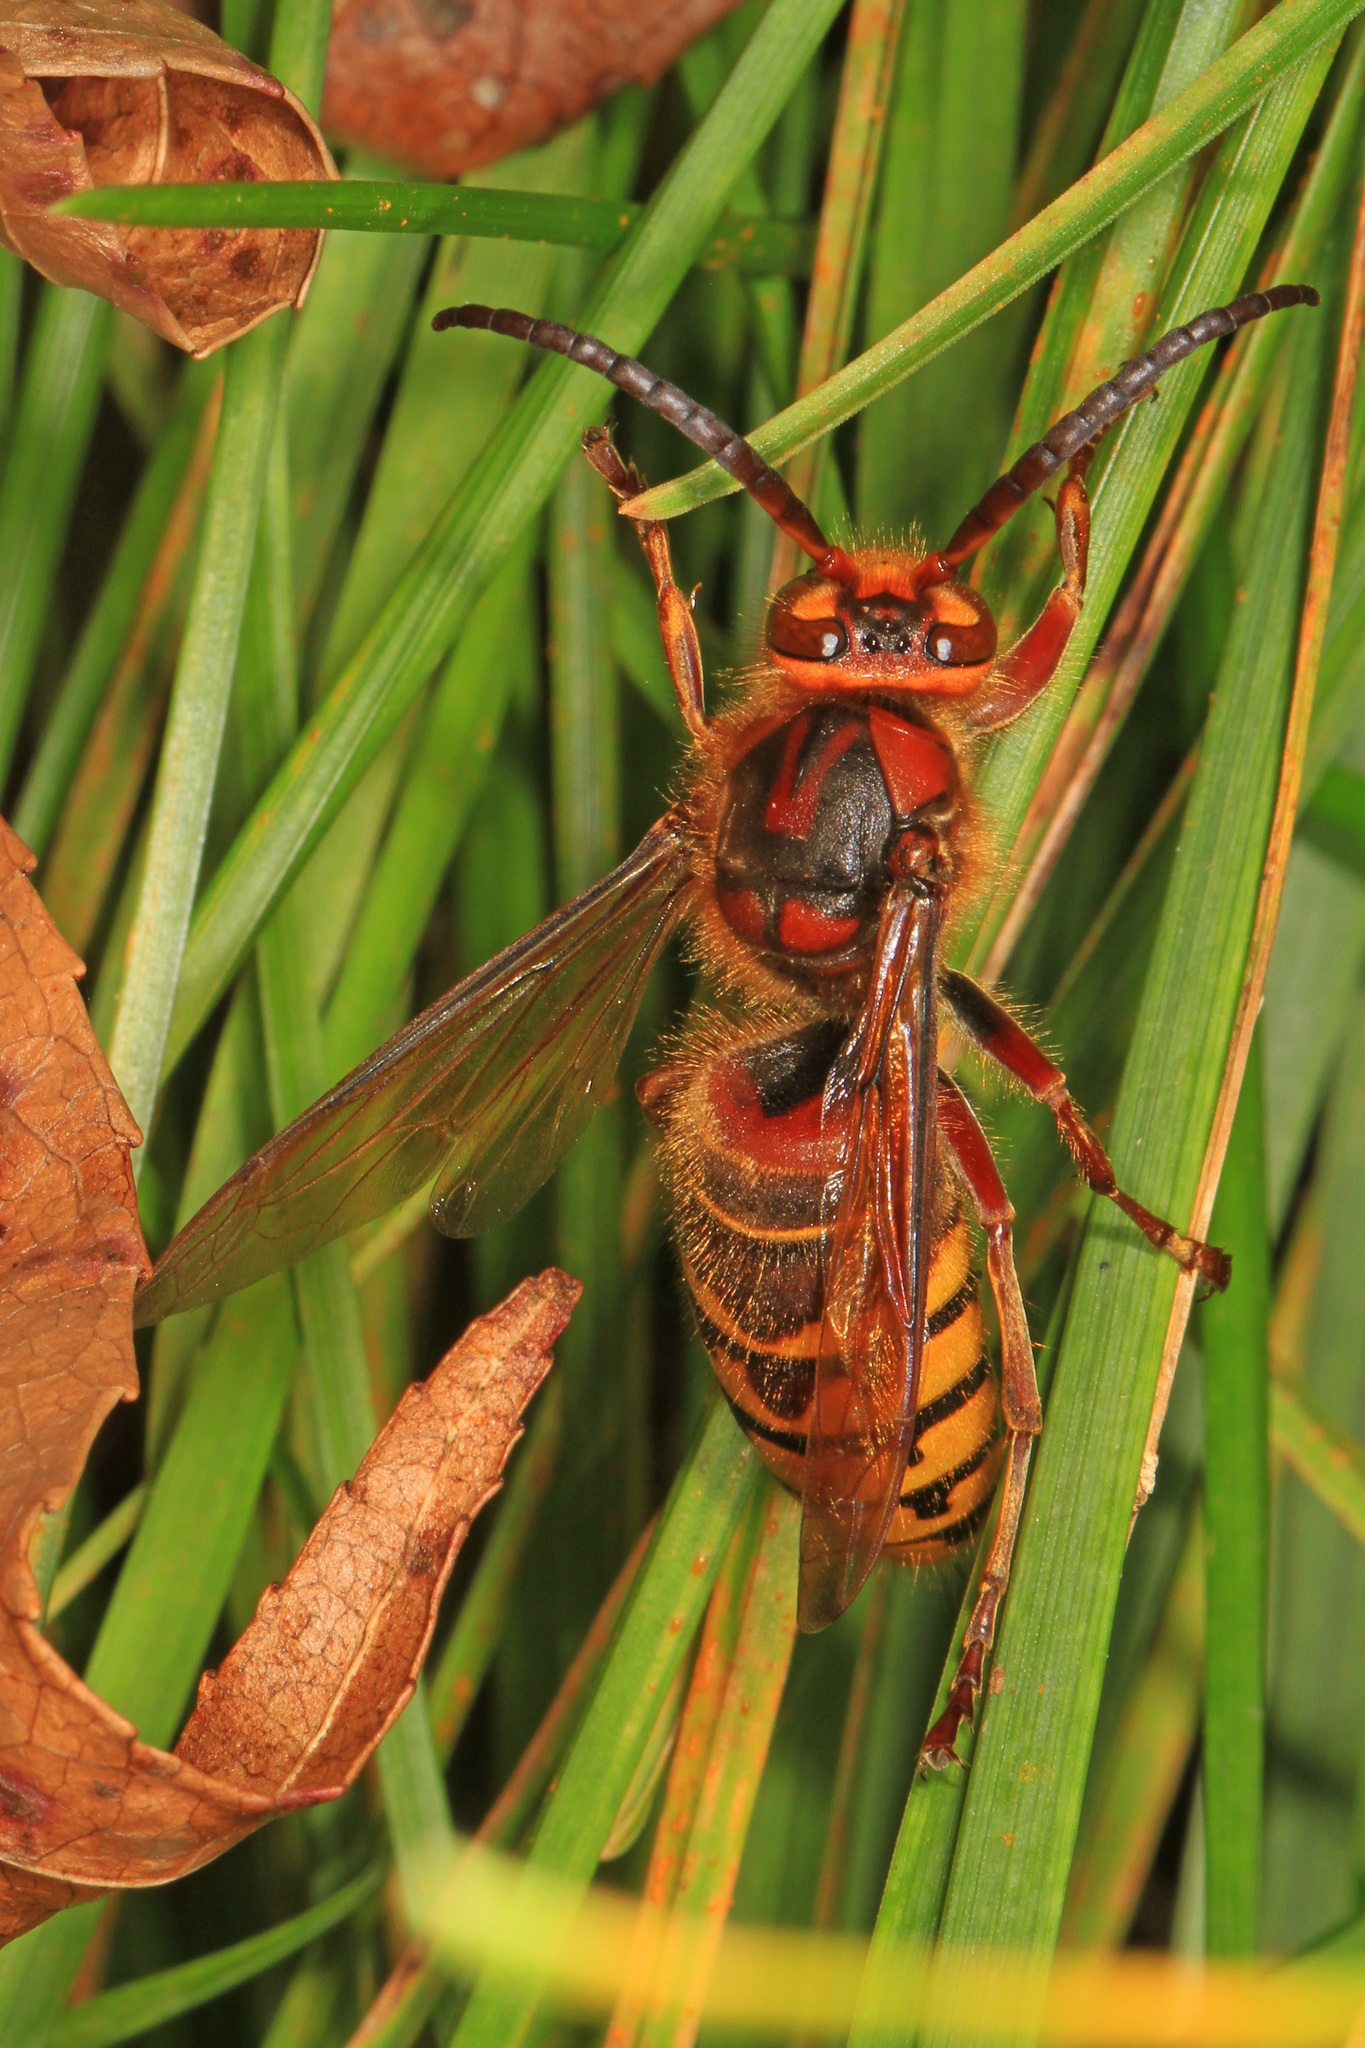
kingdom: Animalia
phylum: Arthropoda
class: Insecta
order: Hymenoptera
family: Vespidae
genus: Vespa
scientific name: Vespa crabro
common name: Hornet
